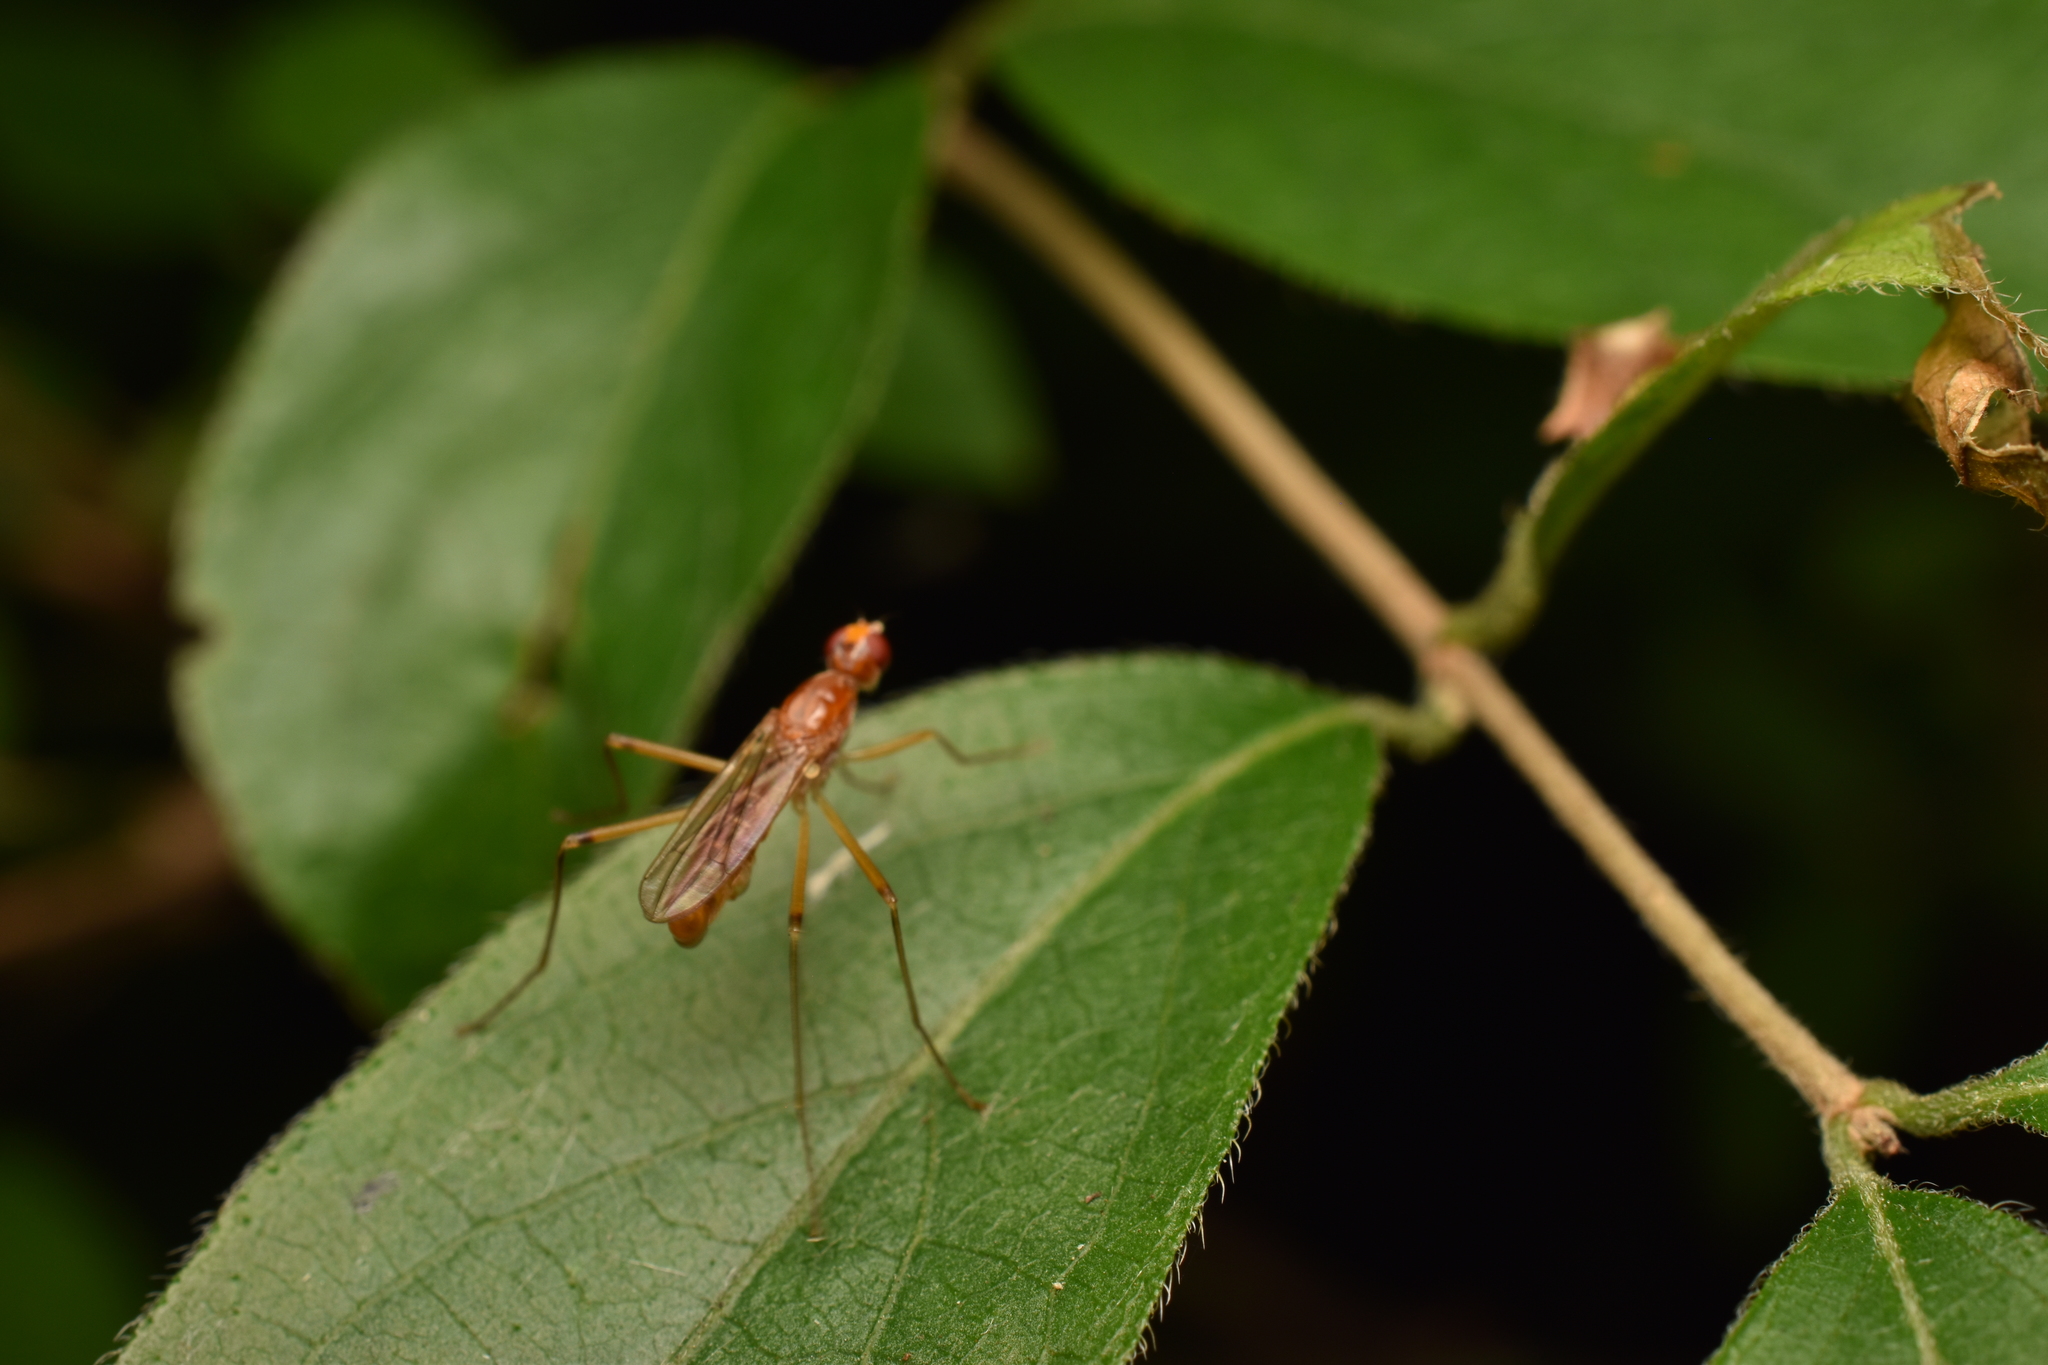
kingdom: Animalia
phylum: Arthropoda
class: Insecta
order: Diptera
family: Micropezidae
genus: Compsobata
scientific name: Compsobata univitta
